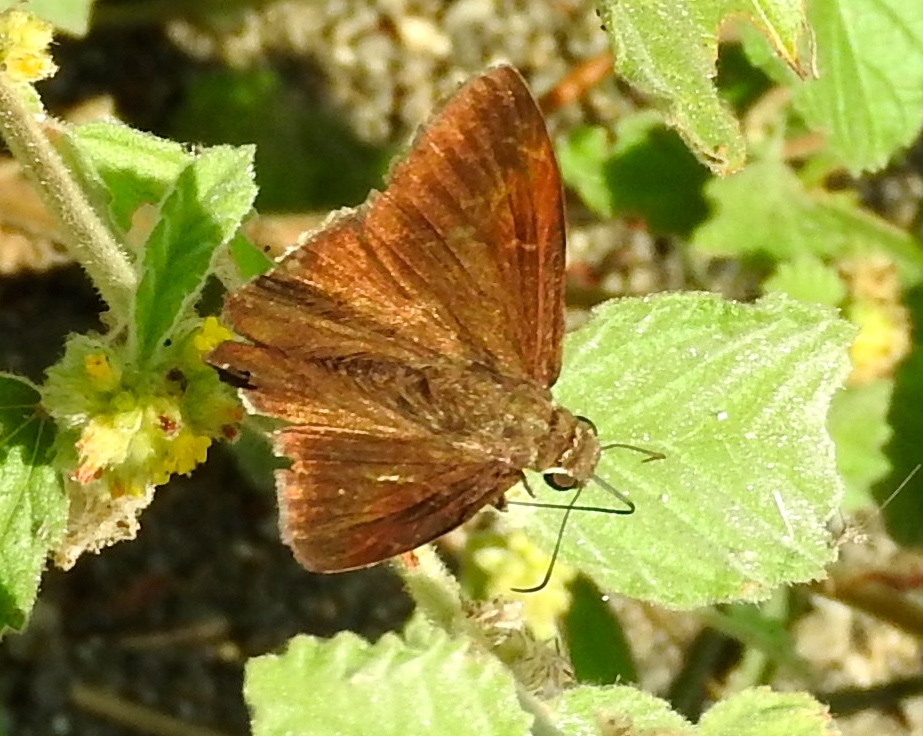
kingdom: Animalia
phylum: Arthropoda
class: Insecta
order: Lepidoptera
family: Hesperiidae
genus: Achalarus
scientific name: Achalarus Murgaria albociliatus
